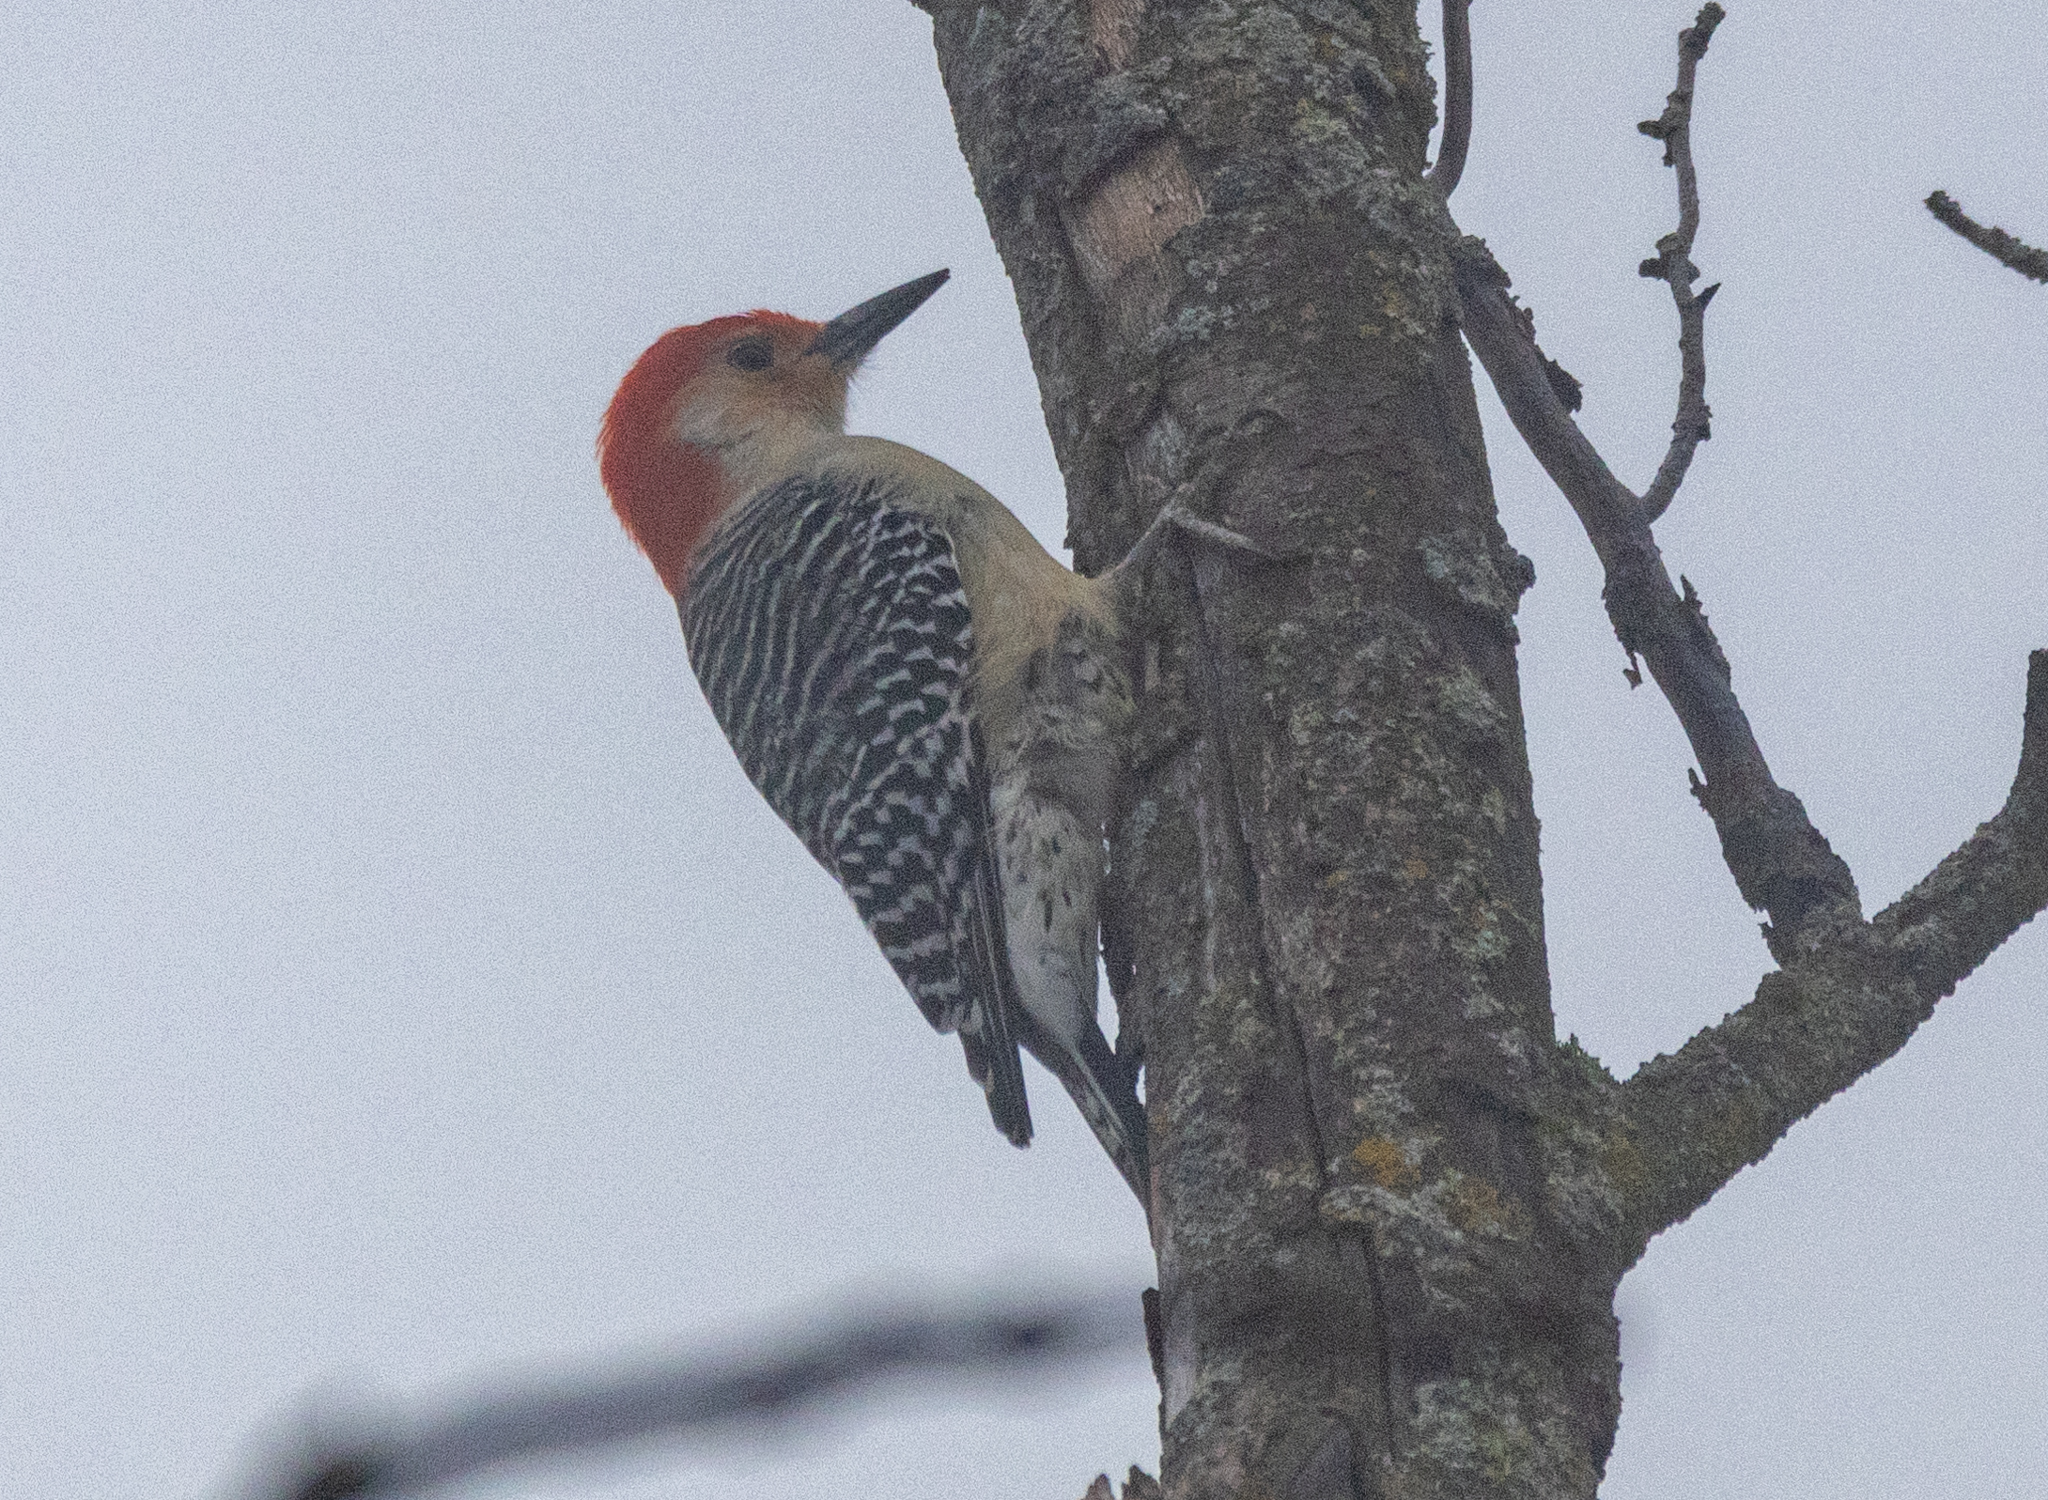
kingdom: Animalia
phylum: Chordata
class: Aves
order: Piciformes
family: Picidae
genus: Melanerpes
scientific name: Melanerpes carolinus
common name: Red-bellied woodpecker
